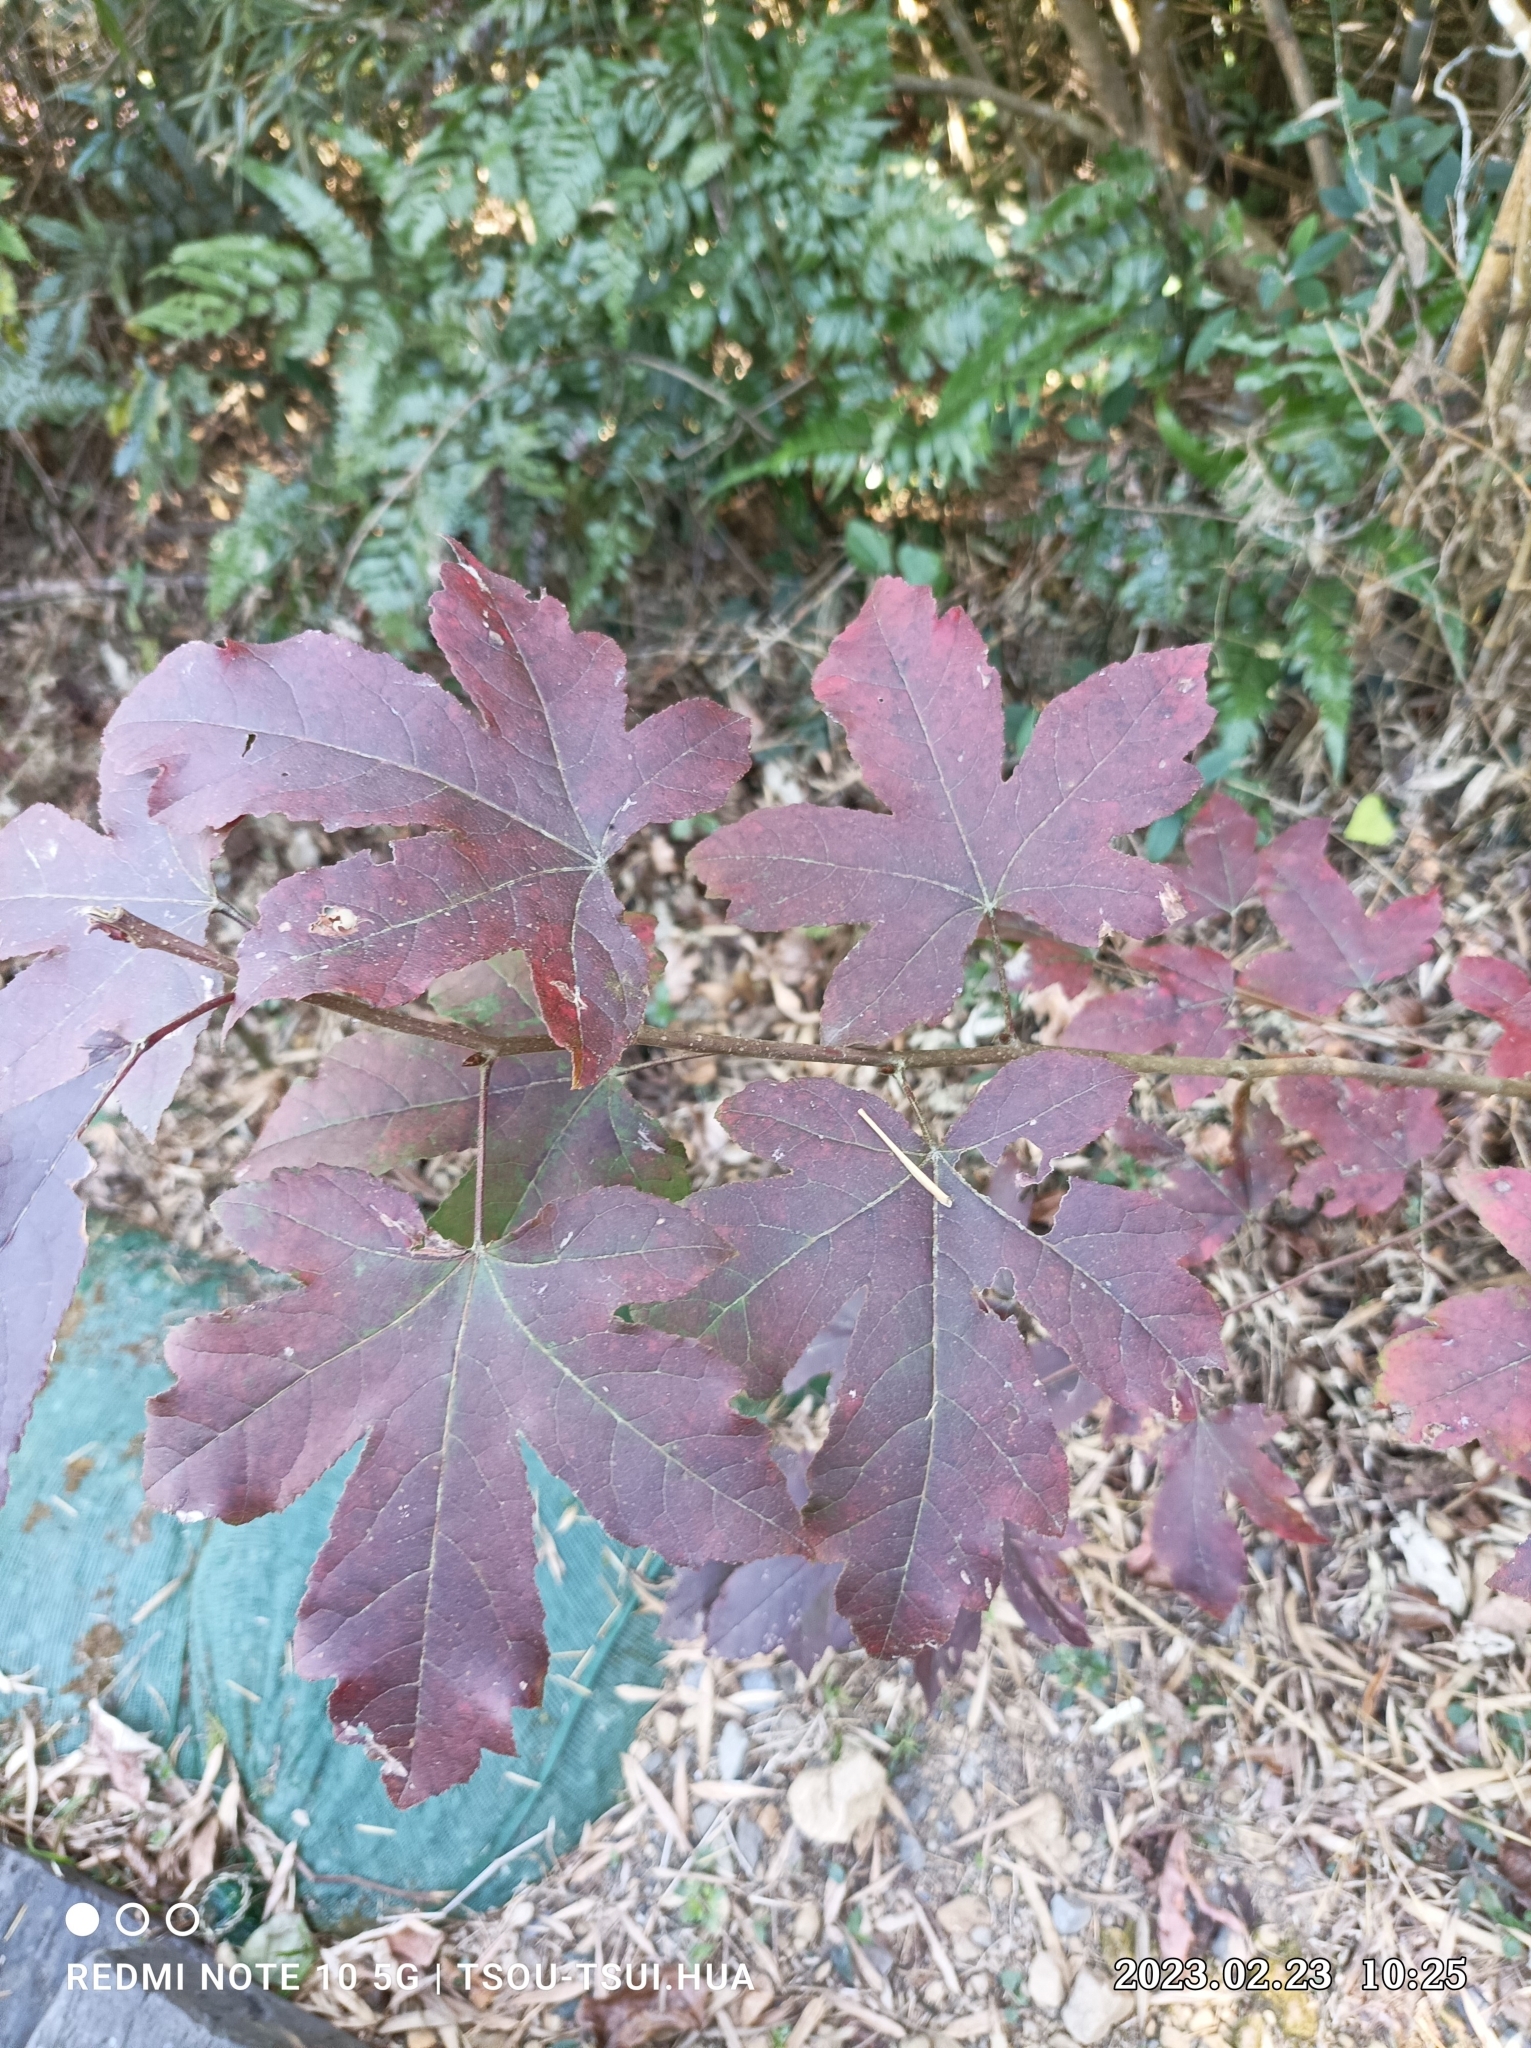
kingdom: Plantae
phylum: Tracheophyta
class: Magnoliopsida
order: Saxifragales
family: Altingiaceae
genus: Liquidambar
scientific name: Liquidambar formosana
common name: Chinese sweet gum
